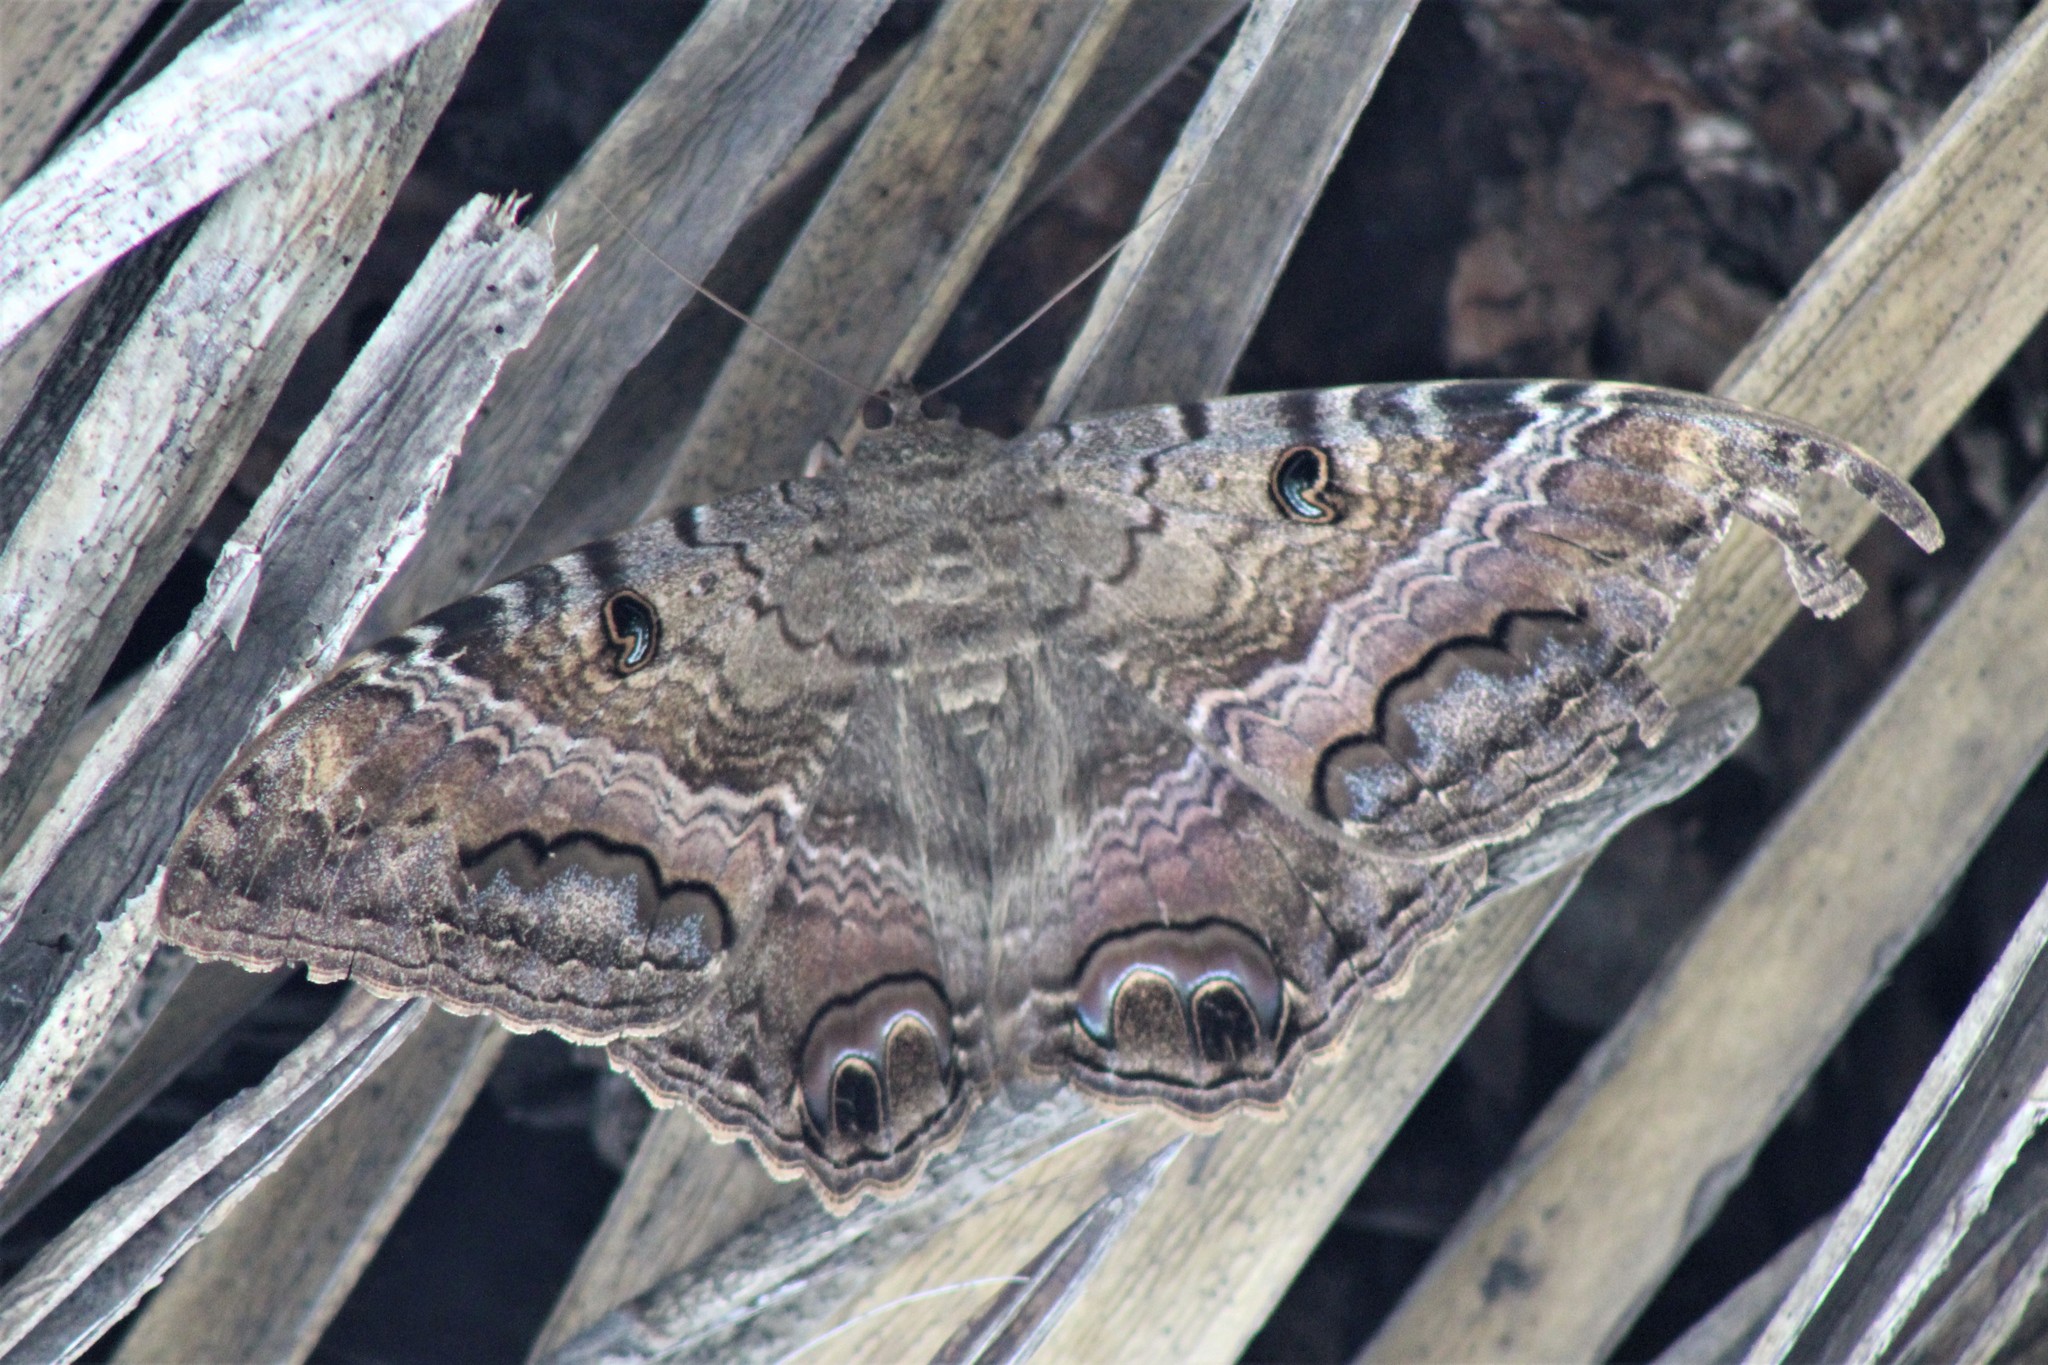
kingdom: Animalia
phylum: Arthropoda
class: Insecta
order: Lepidoptera
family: Erebidae
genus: Ascalapha
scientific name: Ascalapha odorata
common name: Black witch
